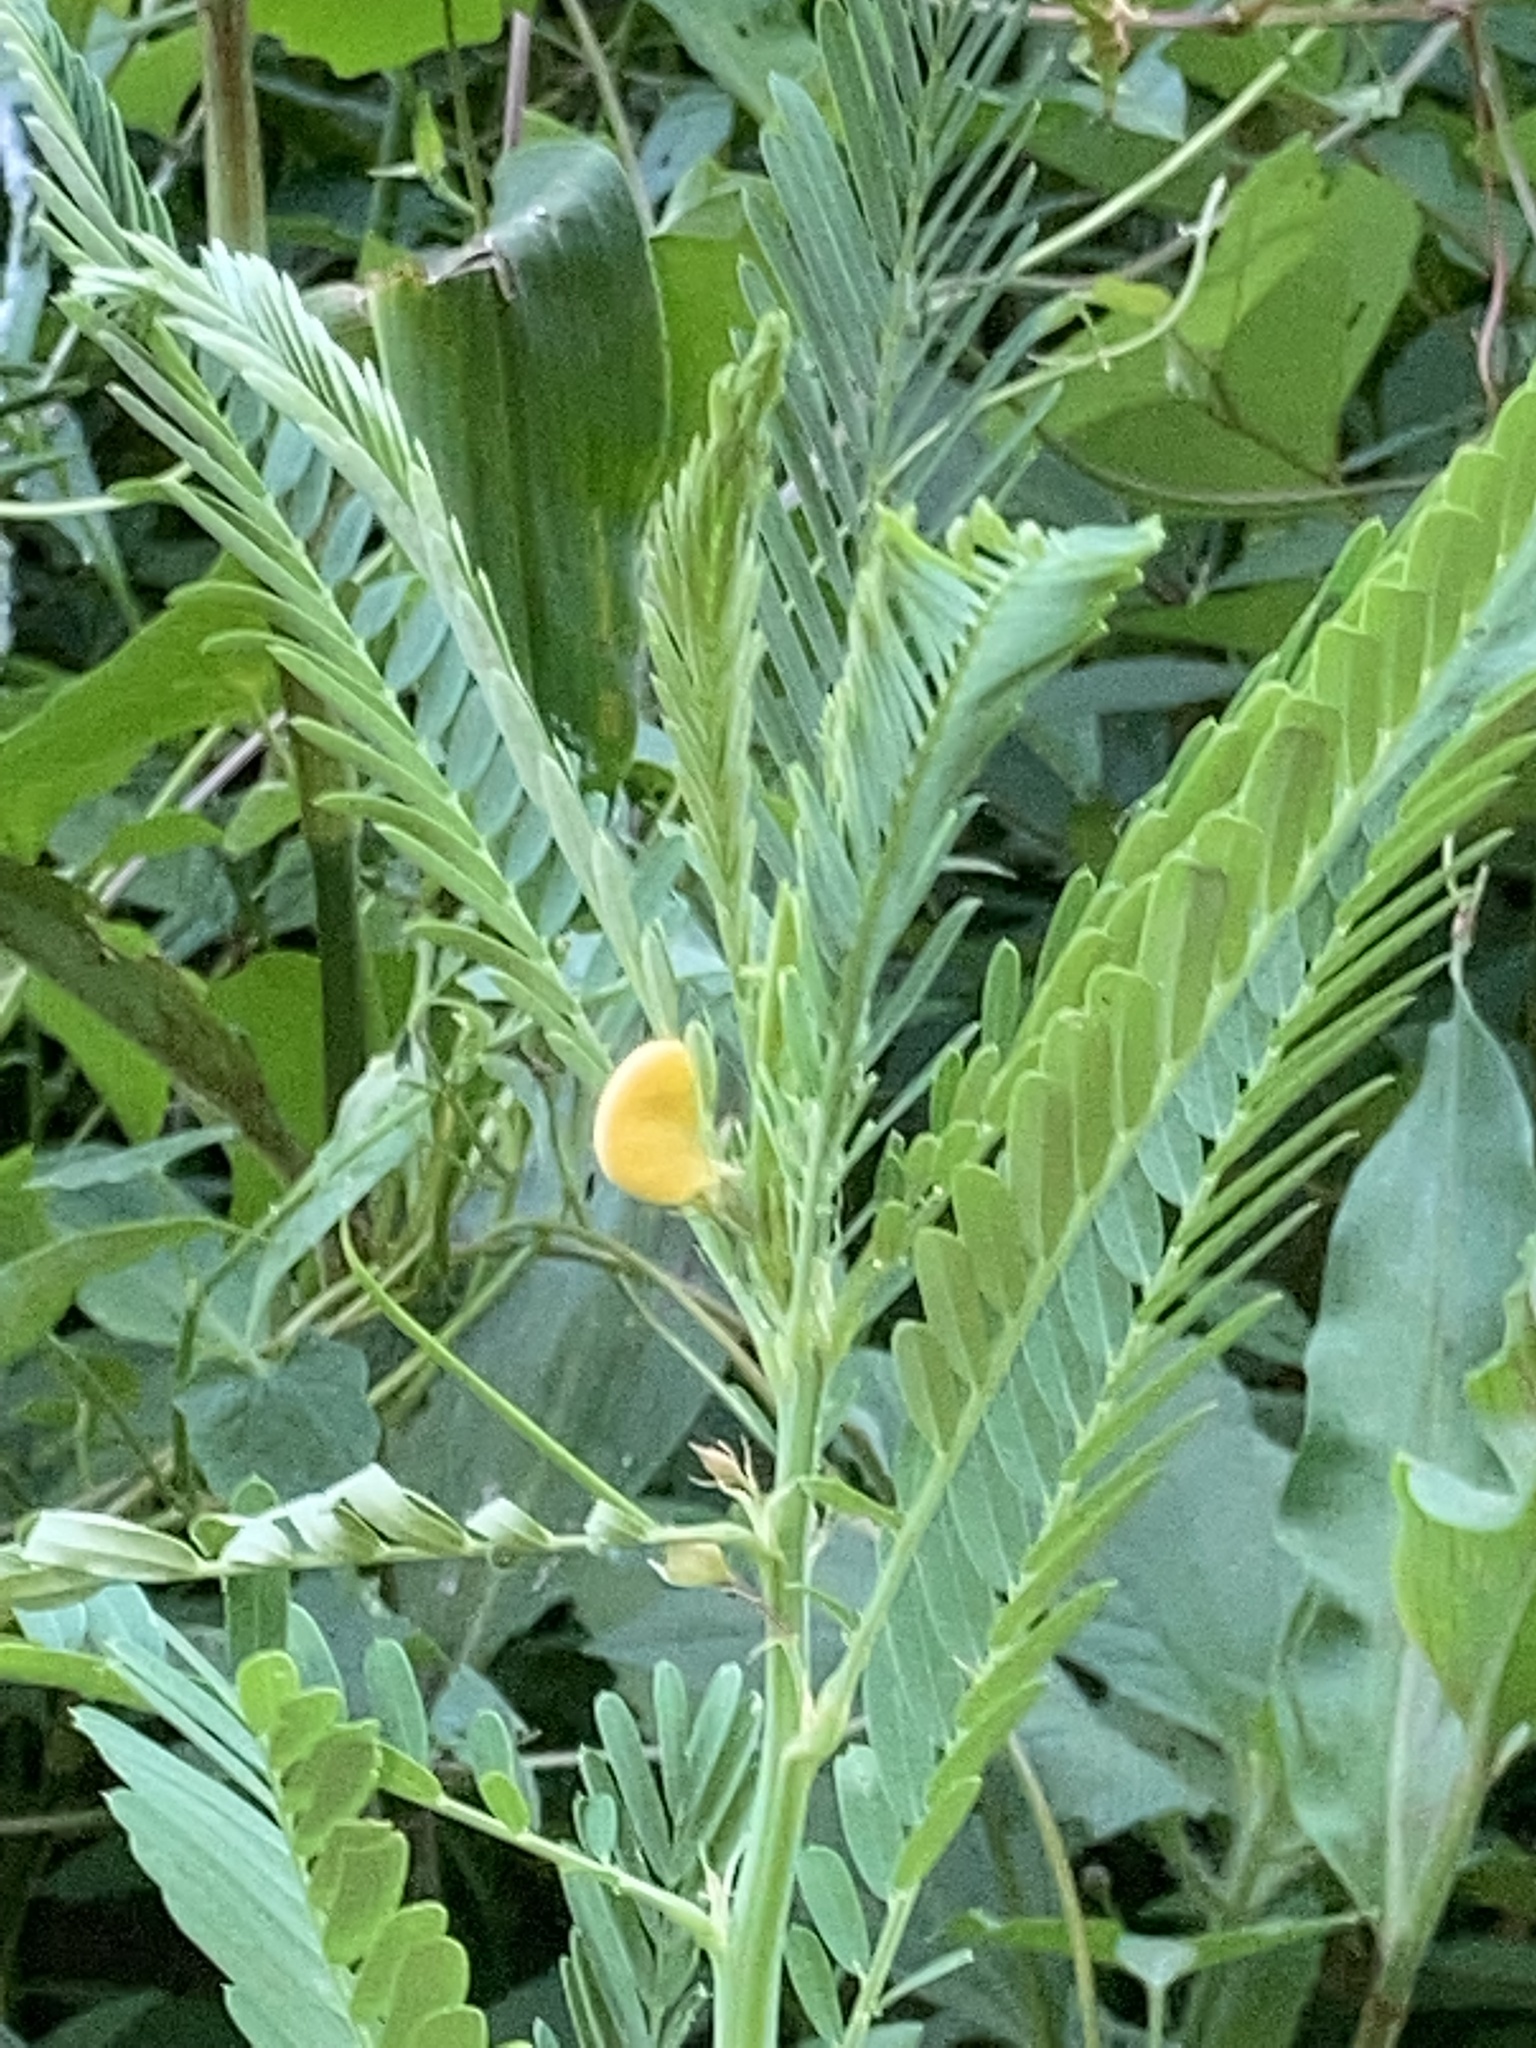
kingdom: Plantae
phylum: Tracheophyta
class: Magnoliopsida
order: Fabales
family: Fabaceae
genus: Sesbania
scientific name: Sesbania herbacea
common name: Bigpod sesbania
